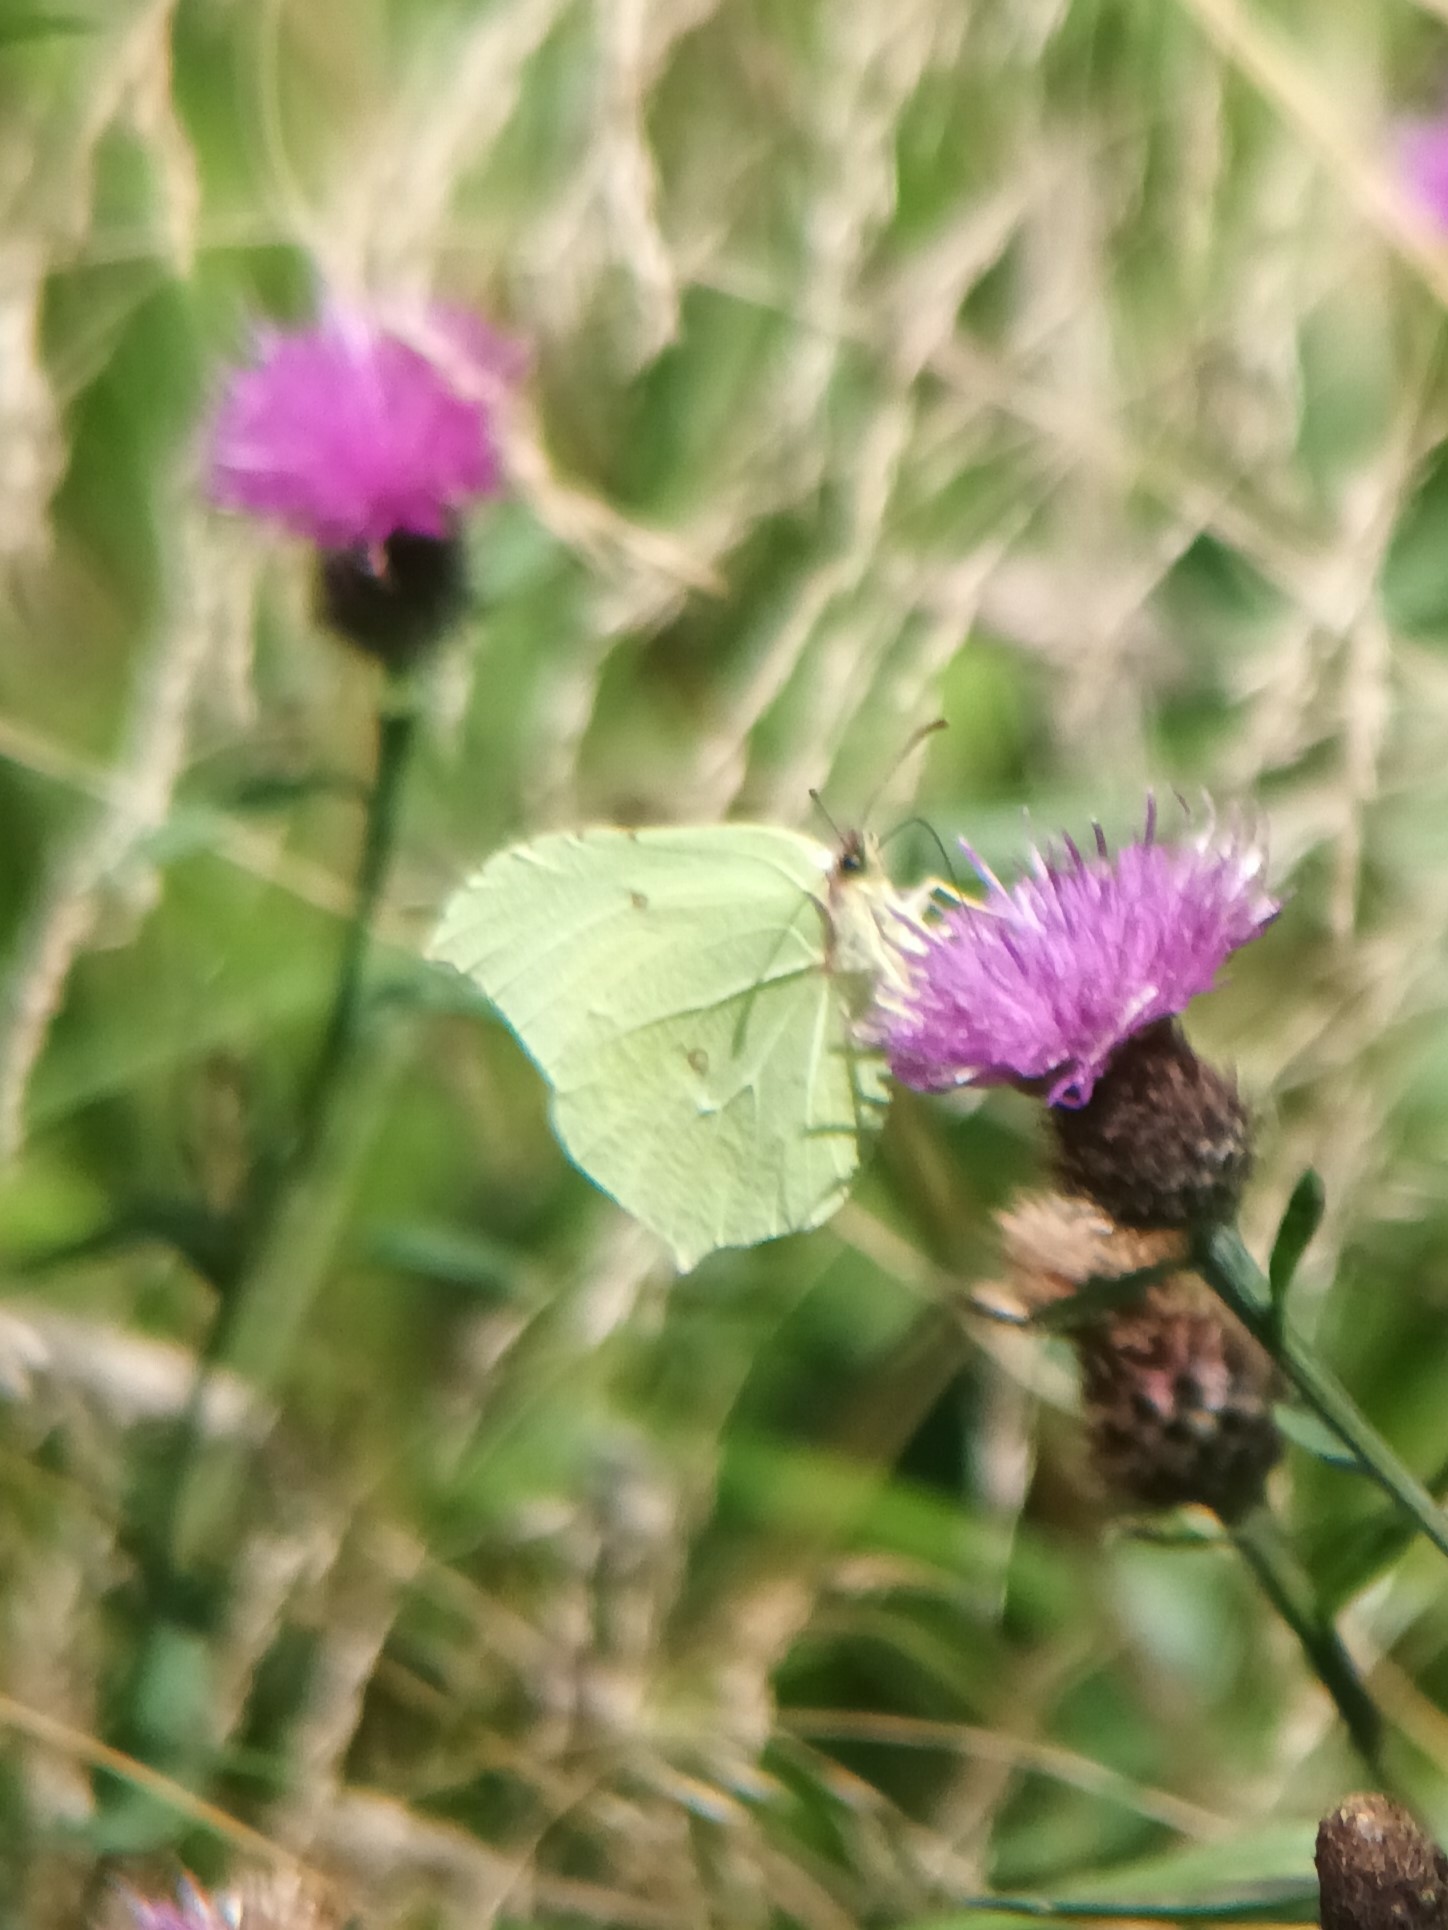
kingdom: Animalia
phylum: Arthropoda
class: Insecta
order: Lepidoptera
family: Pieridae
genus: Gonepteryx
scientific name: Gonepteryx rhamni
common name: Brimstone
